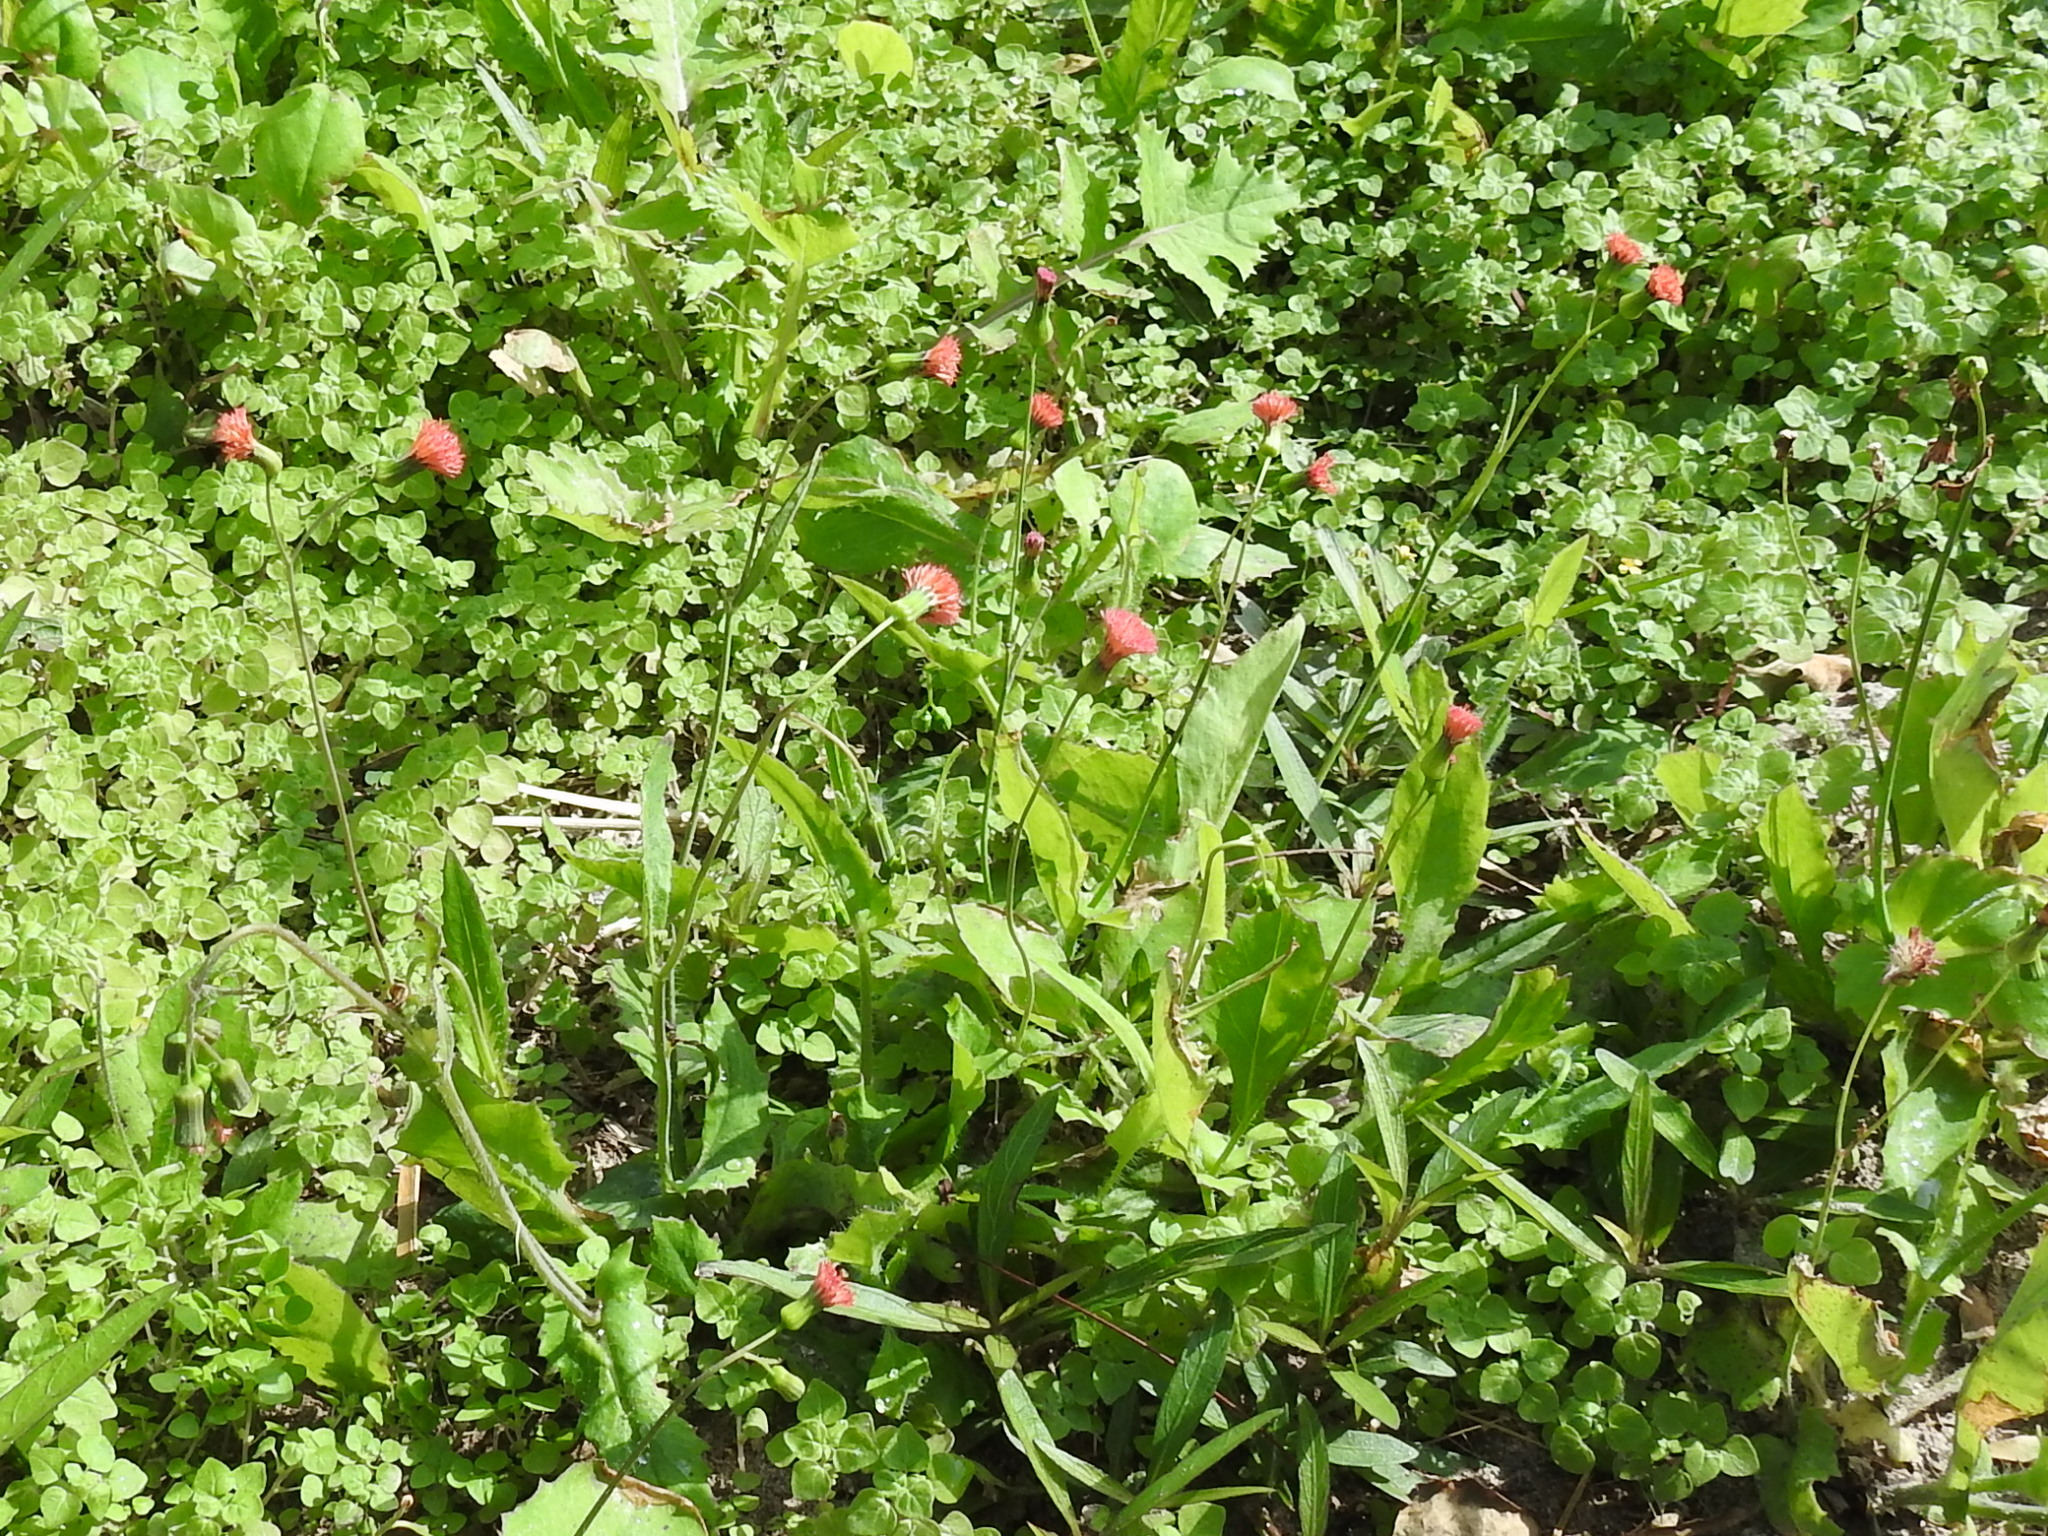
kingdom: Plantae
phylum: Tracheophyta
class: Magnoliopsida
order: Asterales
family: Asteraceae
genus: Emilia
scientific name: Emilia fosbergii
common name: Florida tasselflower
